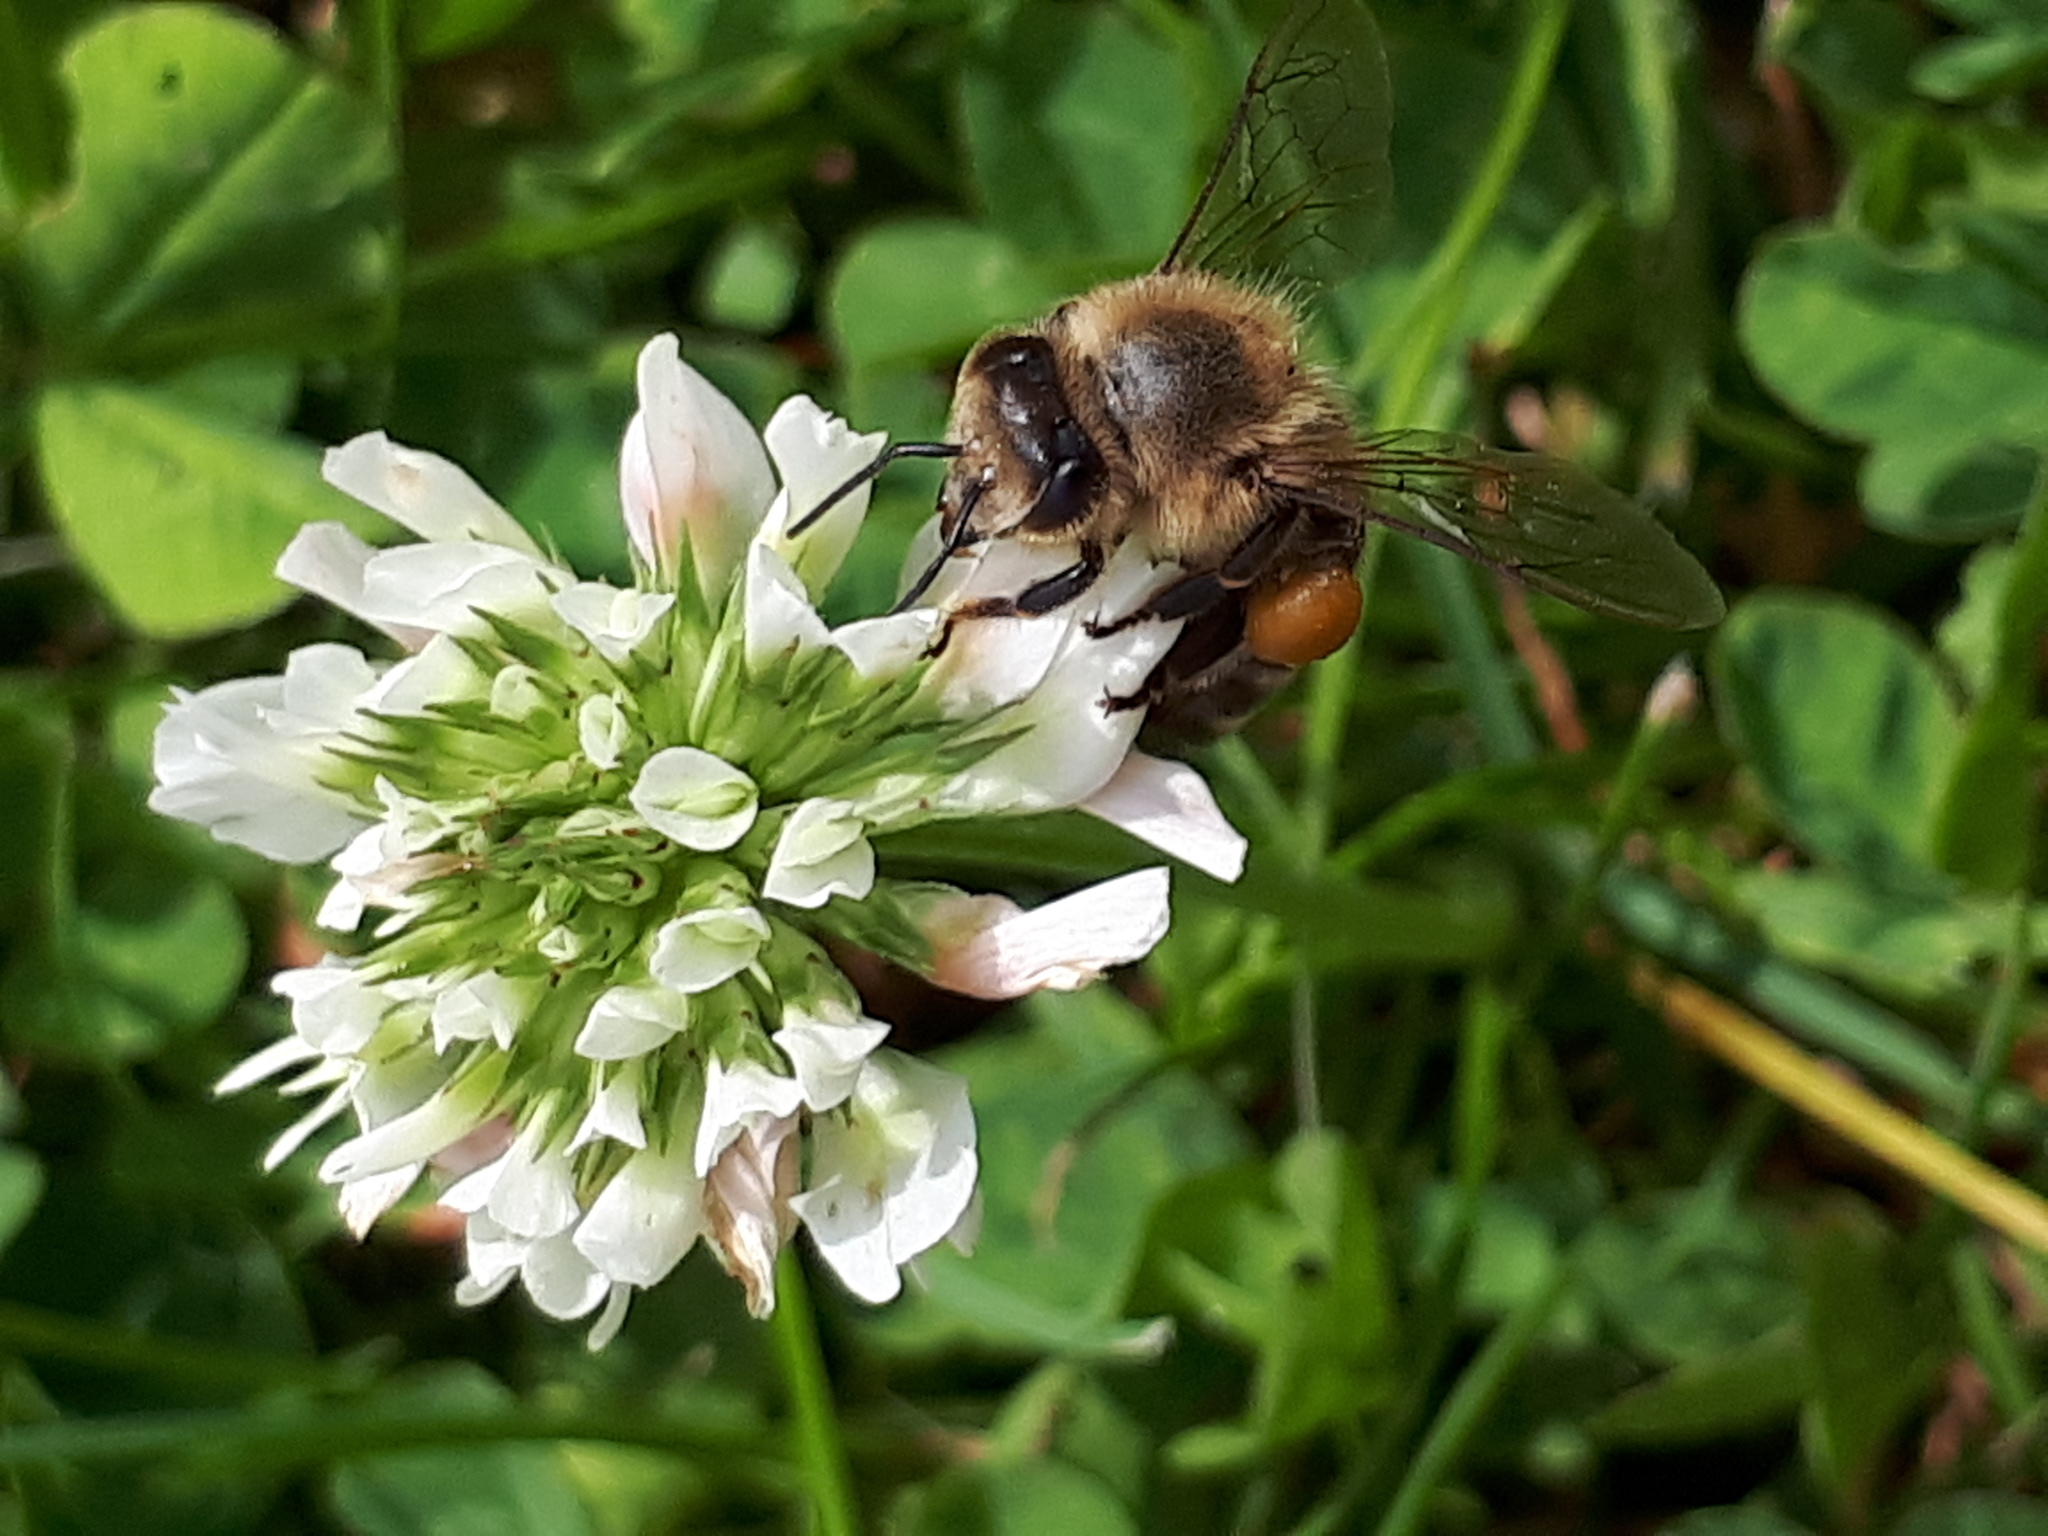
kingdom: Animalia
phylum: Arthropoda
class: Insecta
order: Hymenoptera
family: Apidae
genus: Apis
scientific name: Apis mellifera
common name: Honey bee
